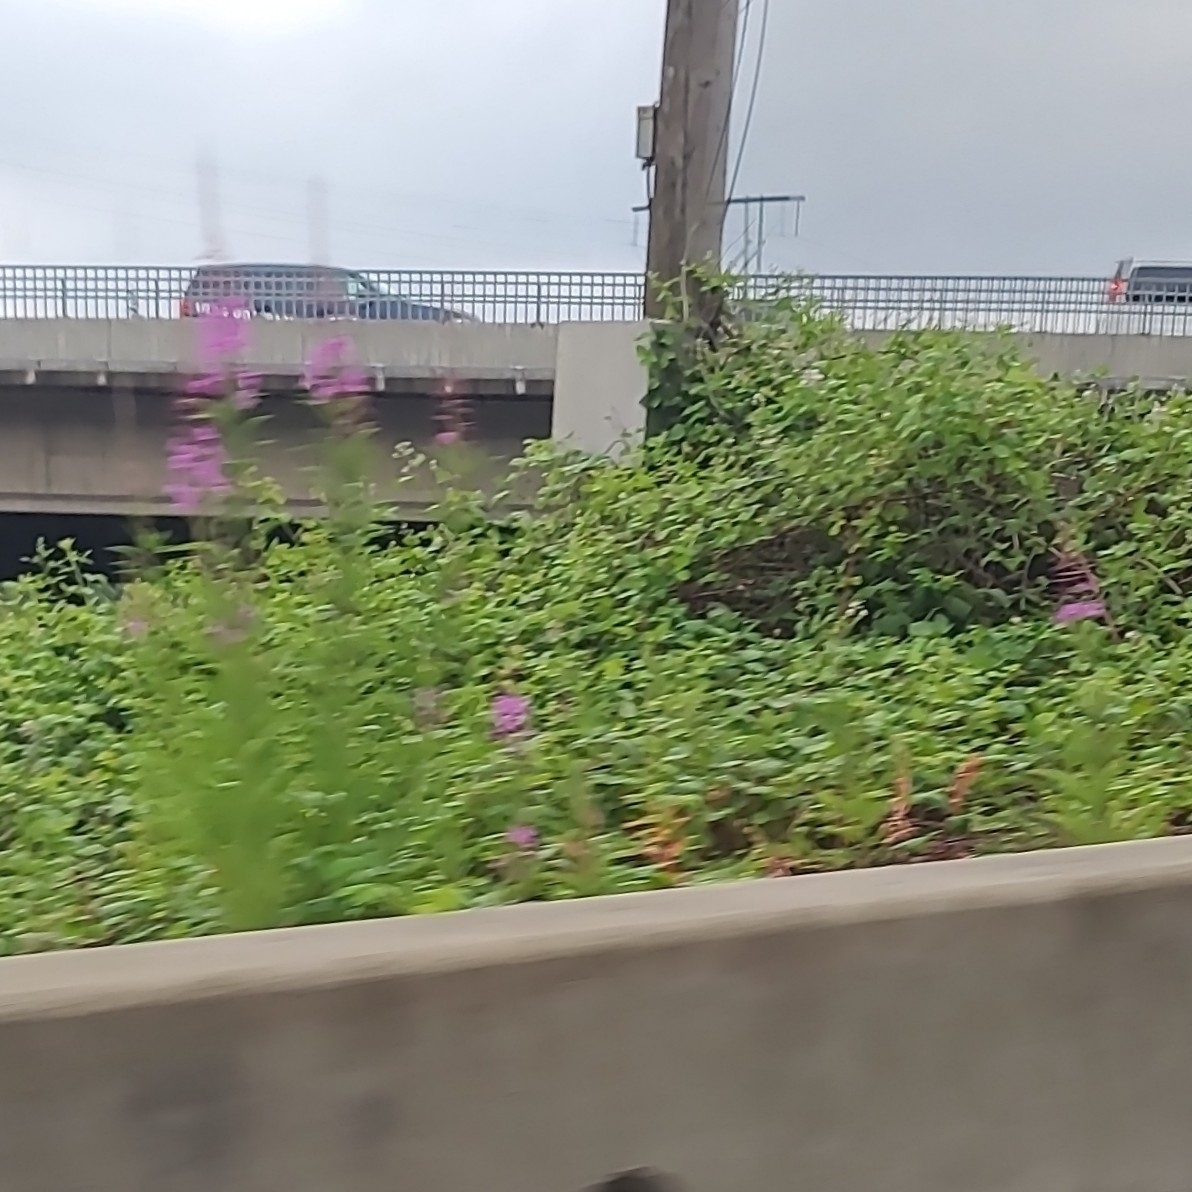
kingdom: Plantae
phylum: Tracheophyta
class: Magnoliopsida
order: Myrtales
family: Onagraceae
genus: Chamaenerion
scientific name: Chamaenerion angustifolium
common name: Fireweed
